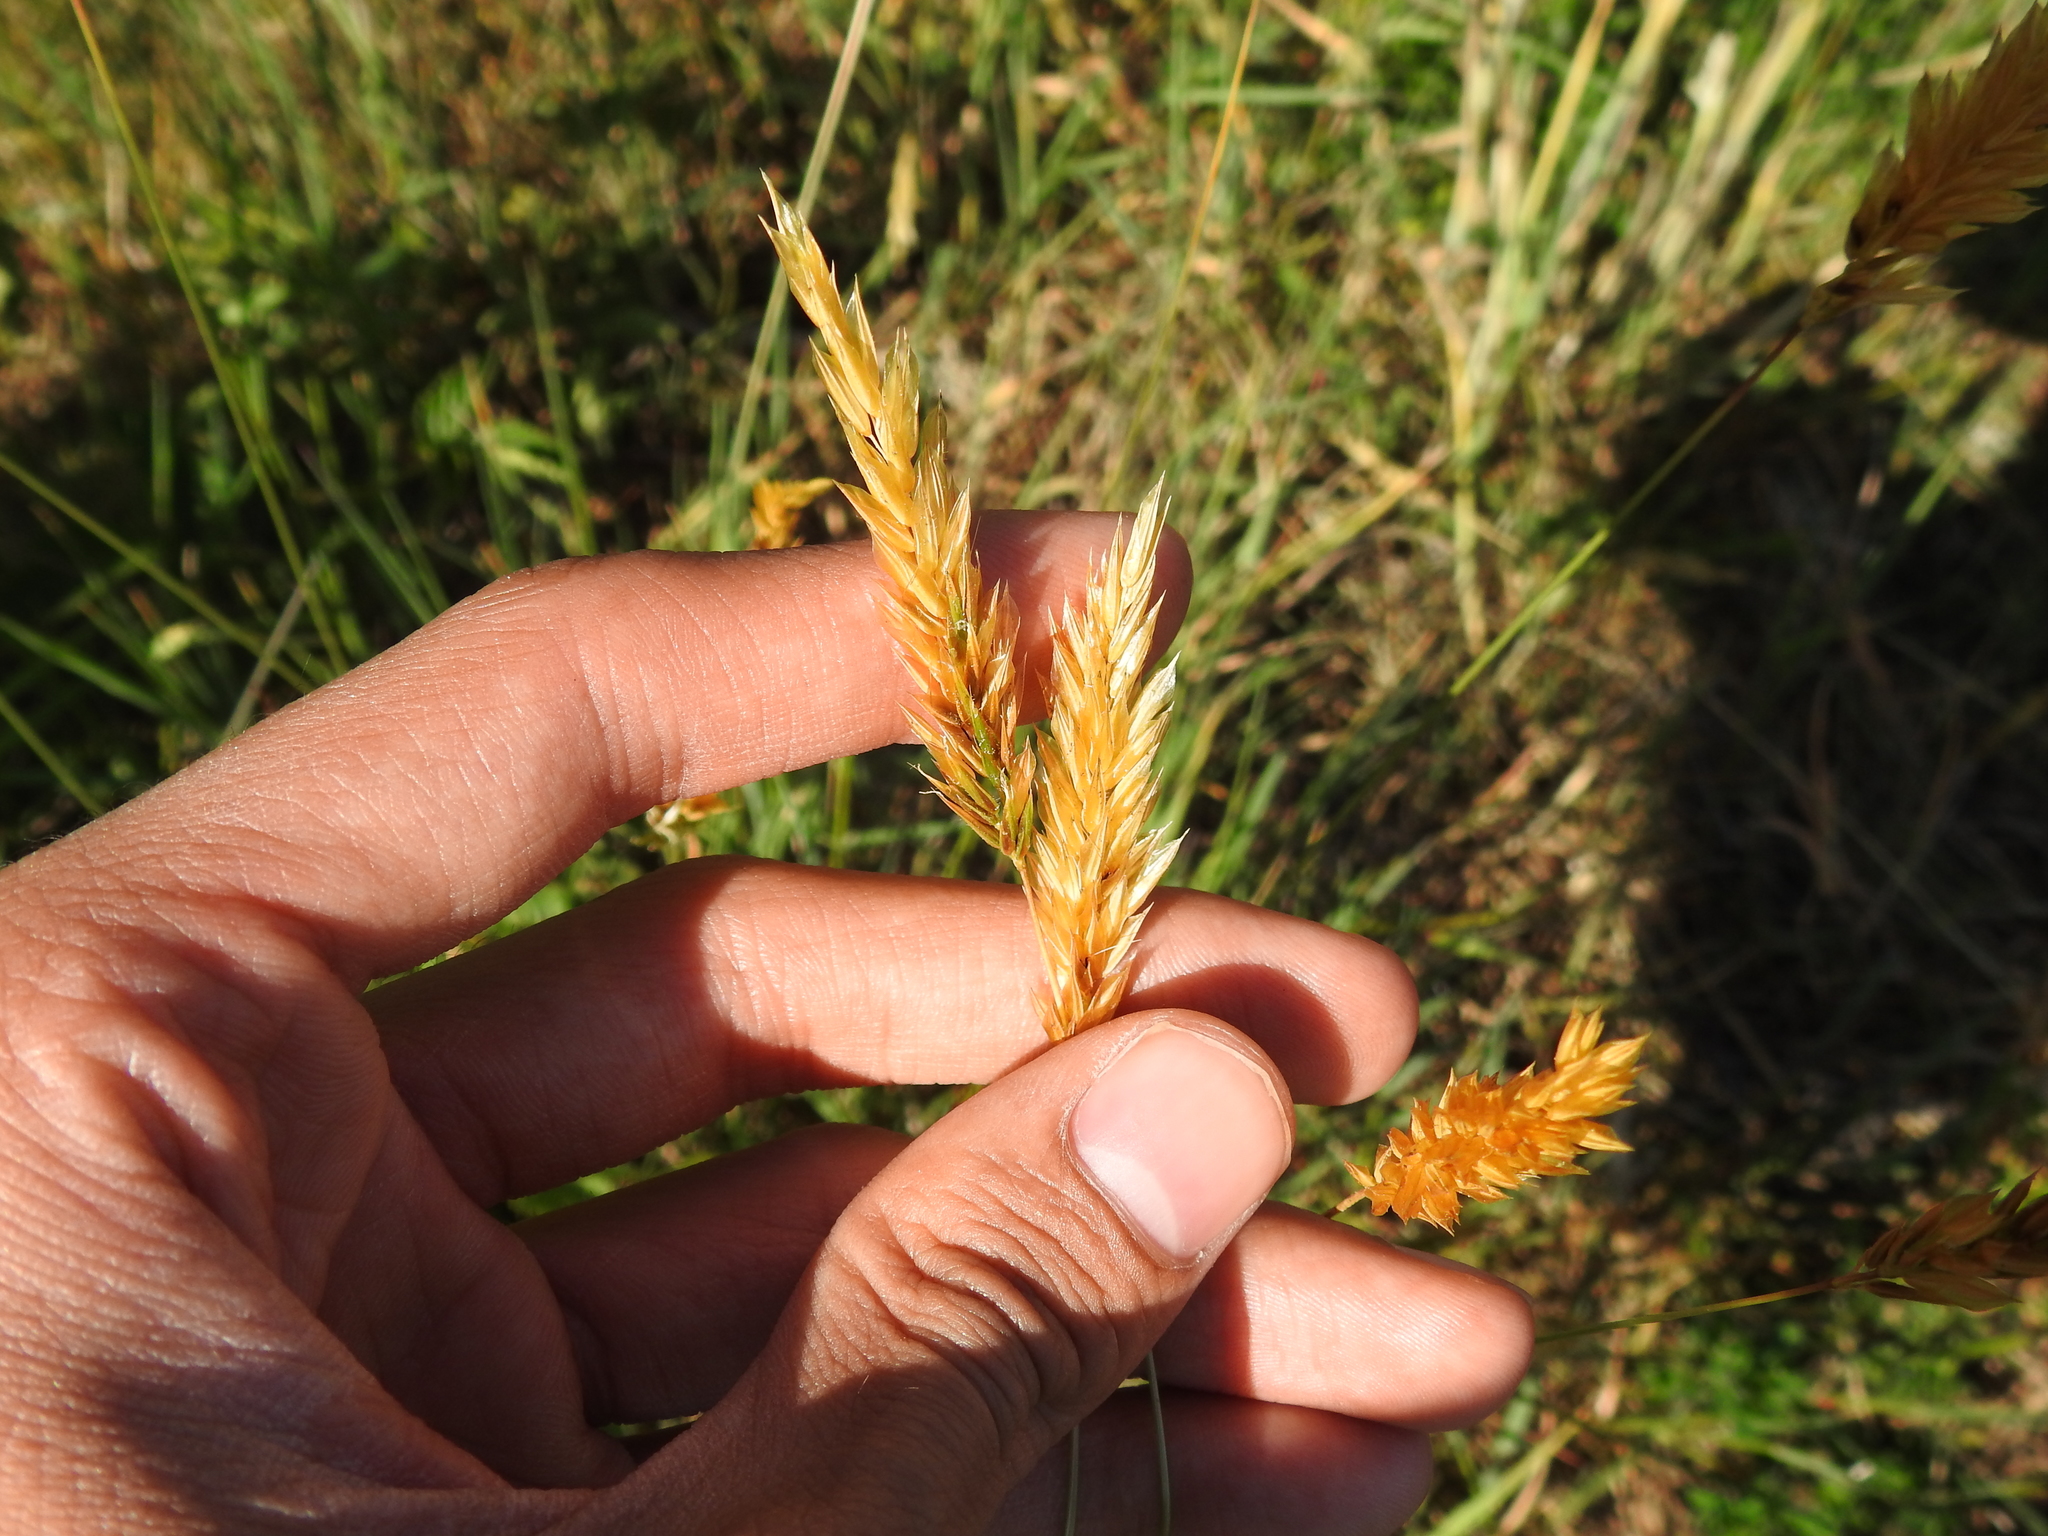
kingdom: Plantae
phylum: Tracheophyta
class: Liliopsida
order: Poales
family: Poaceae
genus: Anthoxanthum
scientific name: Anthoxanthum odoratum
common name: Sweet vernalgrass
